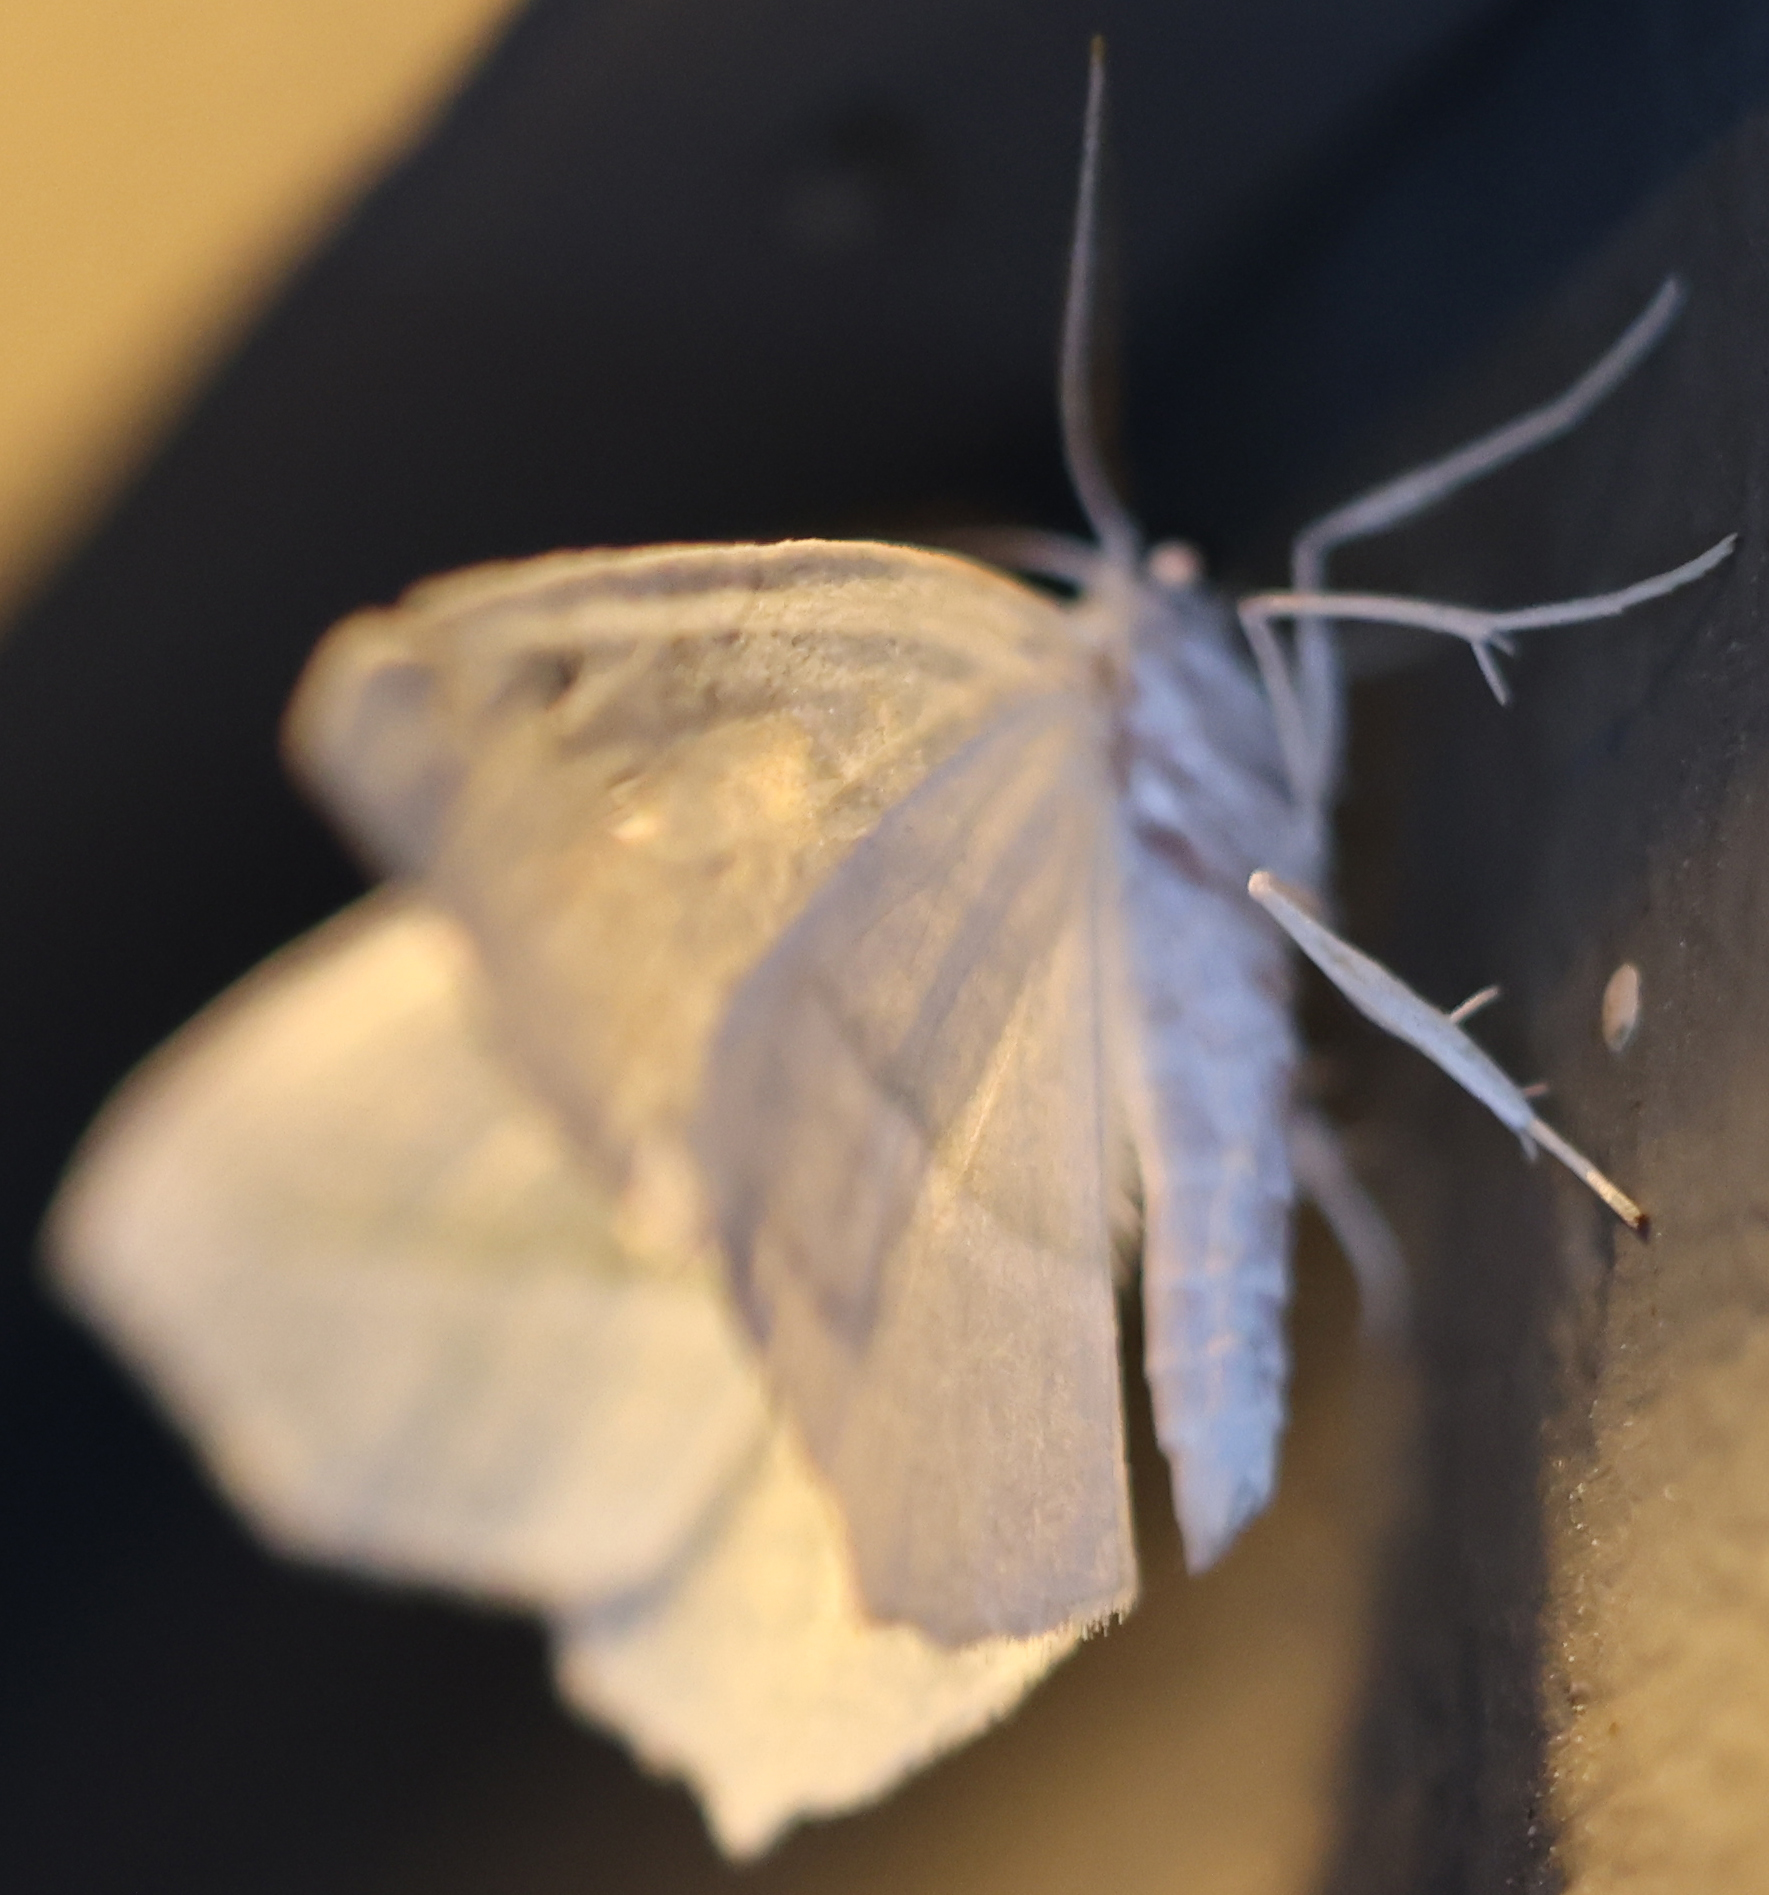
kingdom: Animalia
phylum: Arthropoda
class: Insecta
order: Lepidoptera
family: Geometridae
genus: Campaea
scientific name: Campaea perlata
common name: Fringed looper
